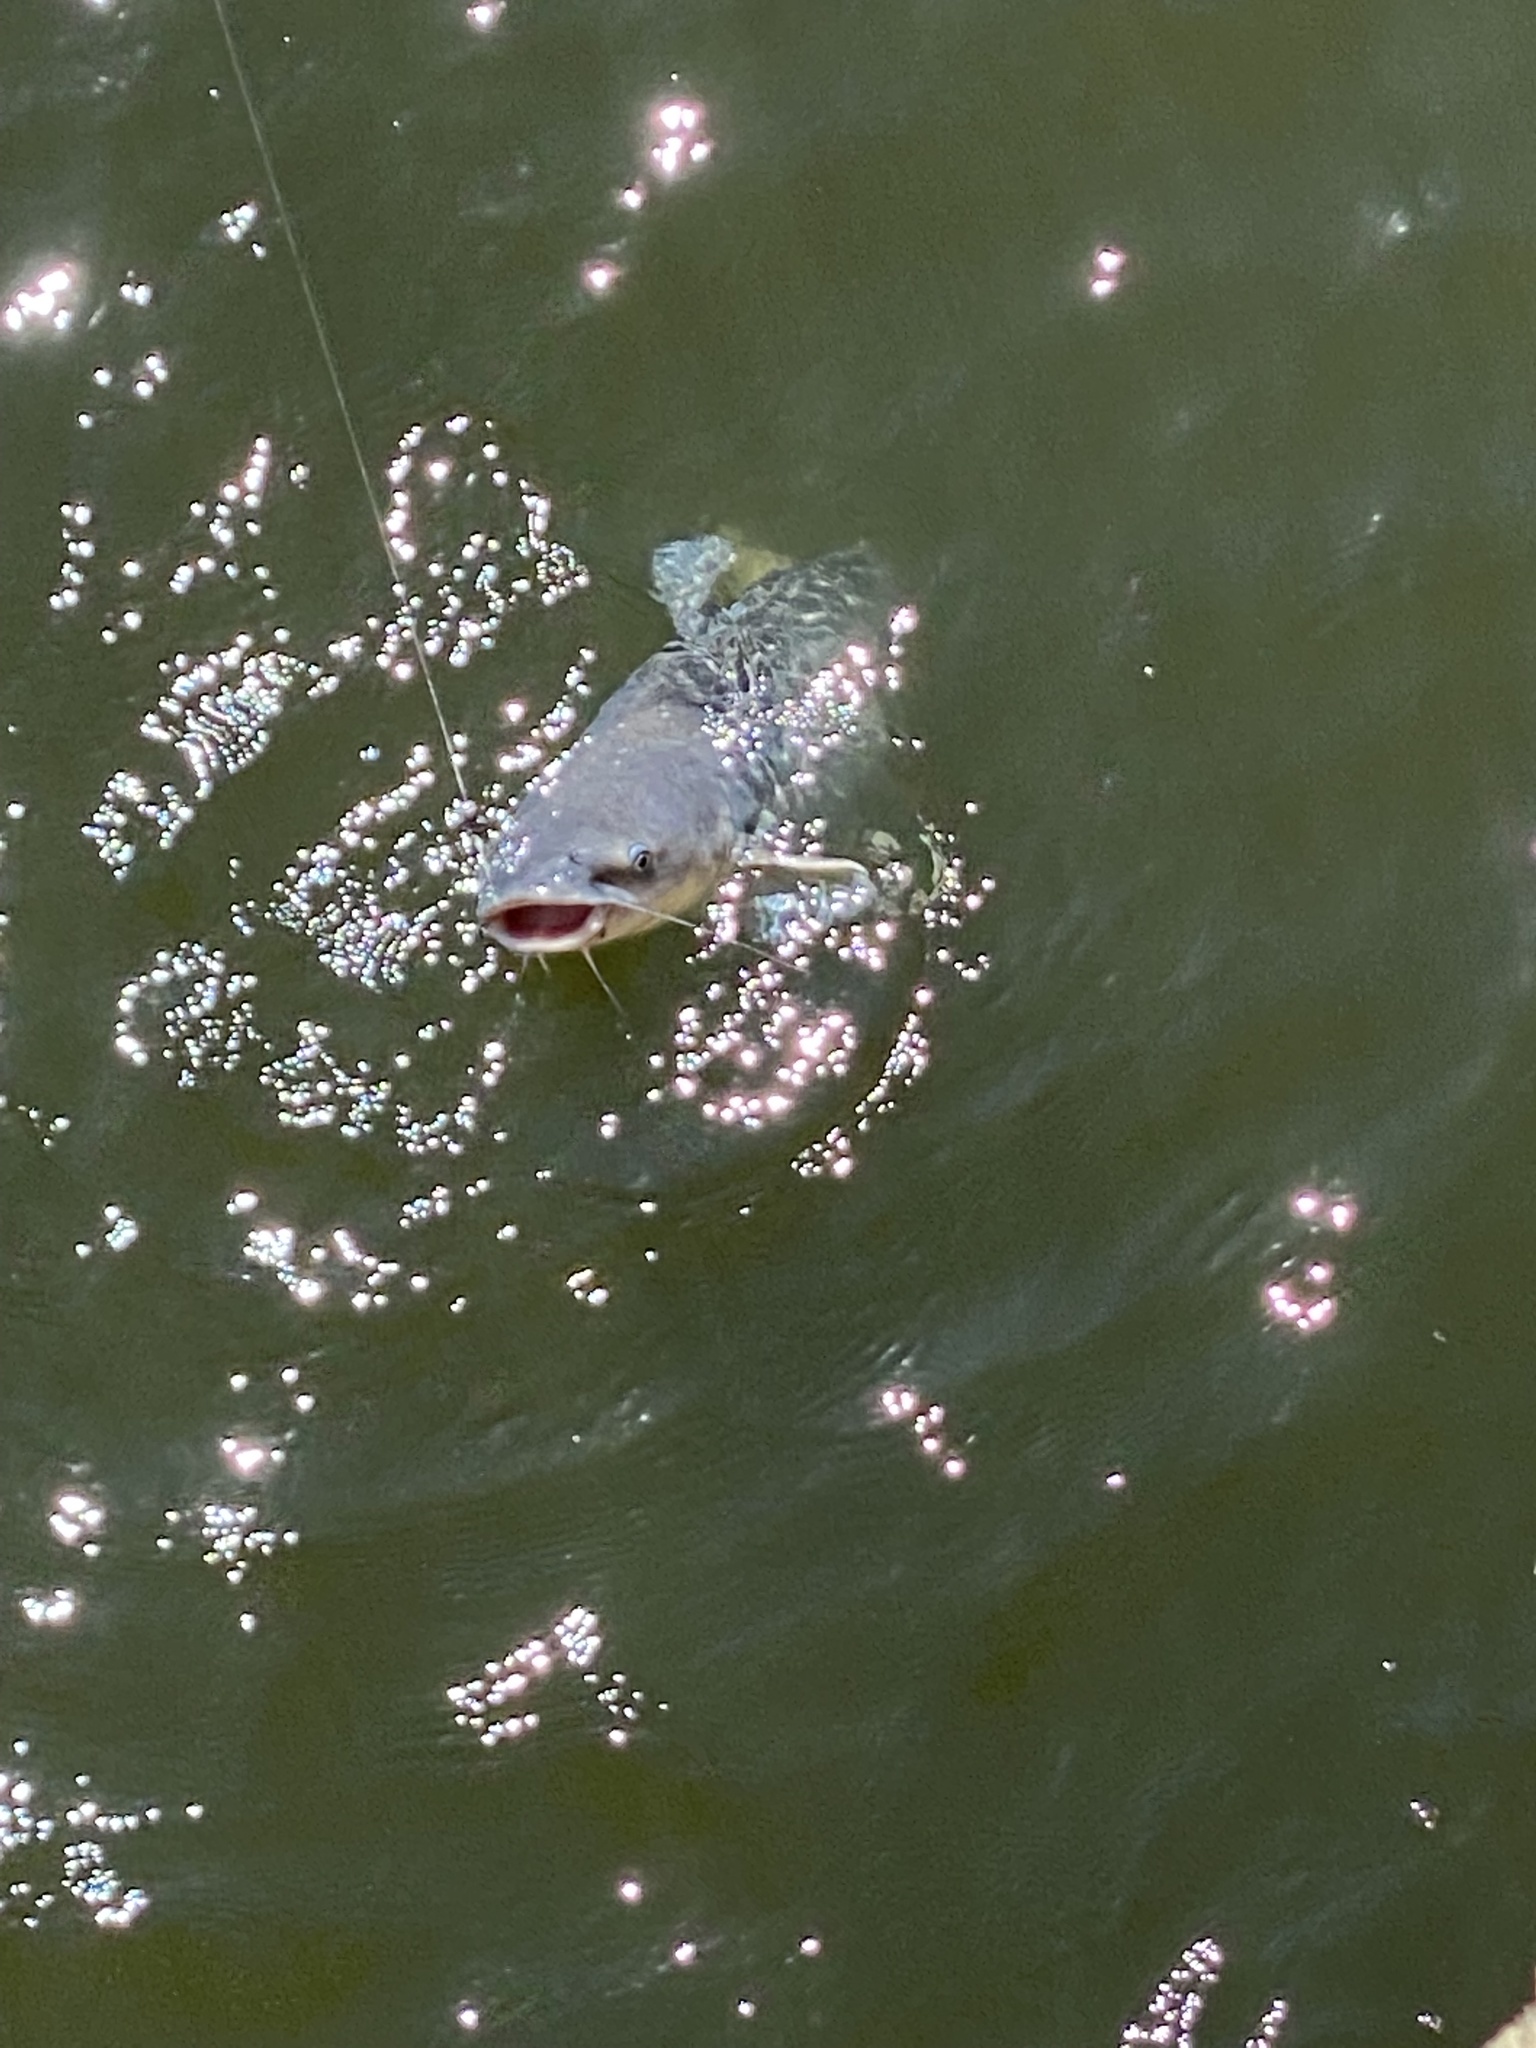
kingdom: Animalia
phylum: Chordata
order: Siluriformes
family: Ictaluridae
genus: Ictalurus
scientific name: Ictalurus furcatus
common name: Blue catfish
